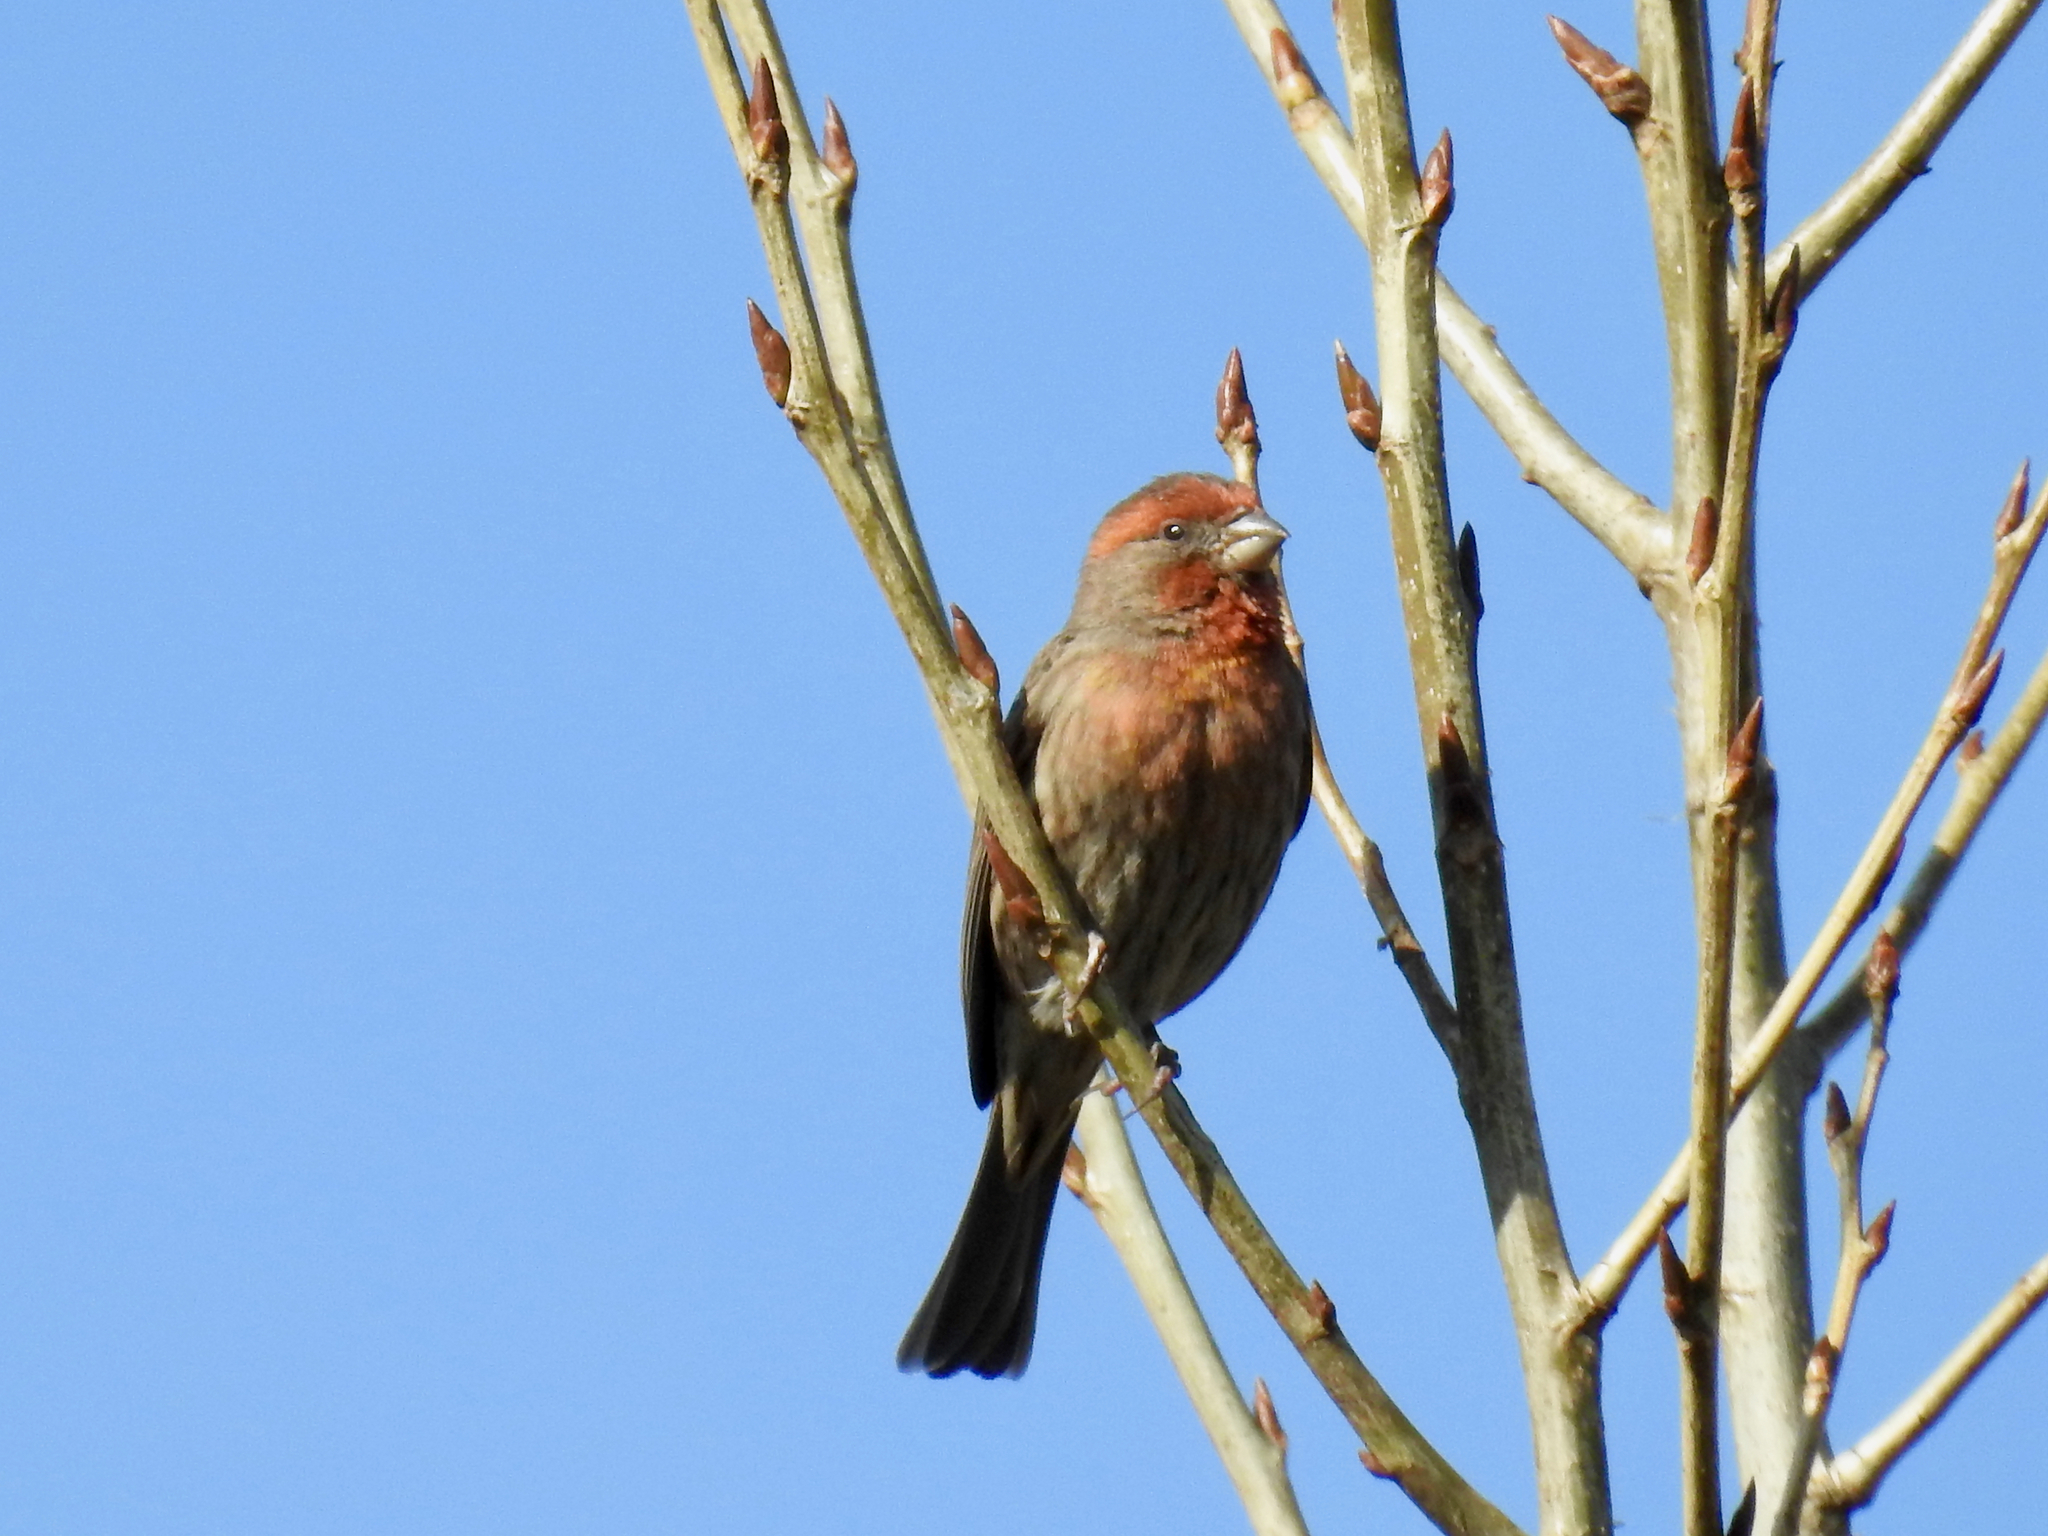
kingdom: Animalia
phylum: Chordata
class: Aves
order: Passeriformes
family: Fringillidae
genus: Haemorhous
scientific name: Haemorhous mexicanus
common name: House finch
